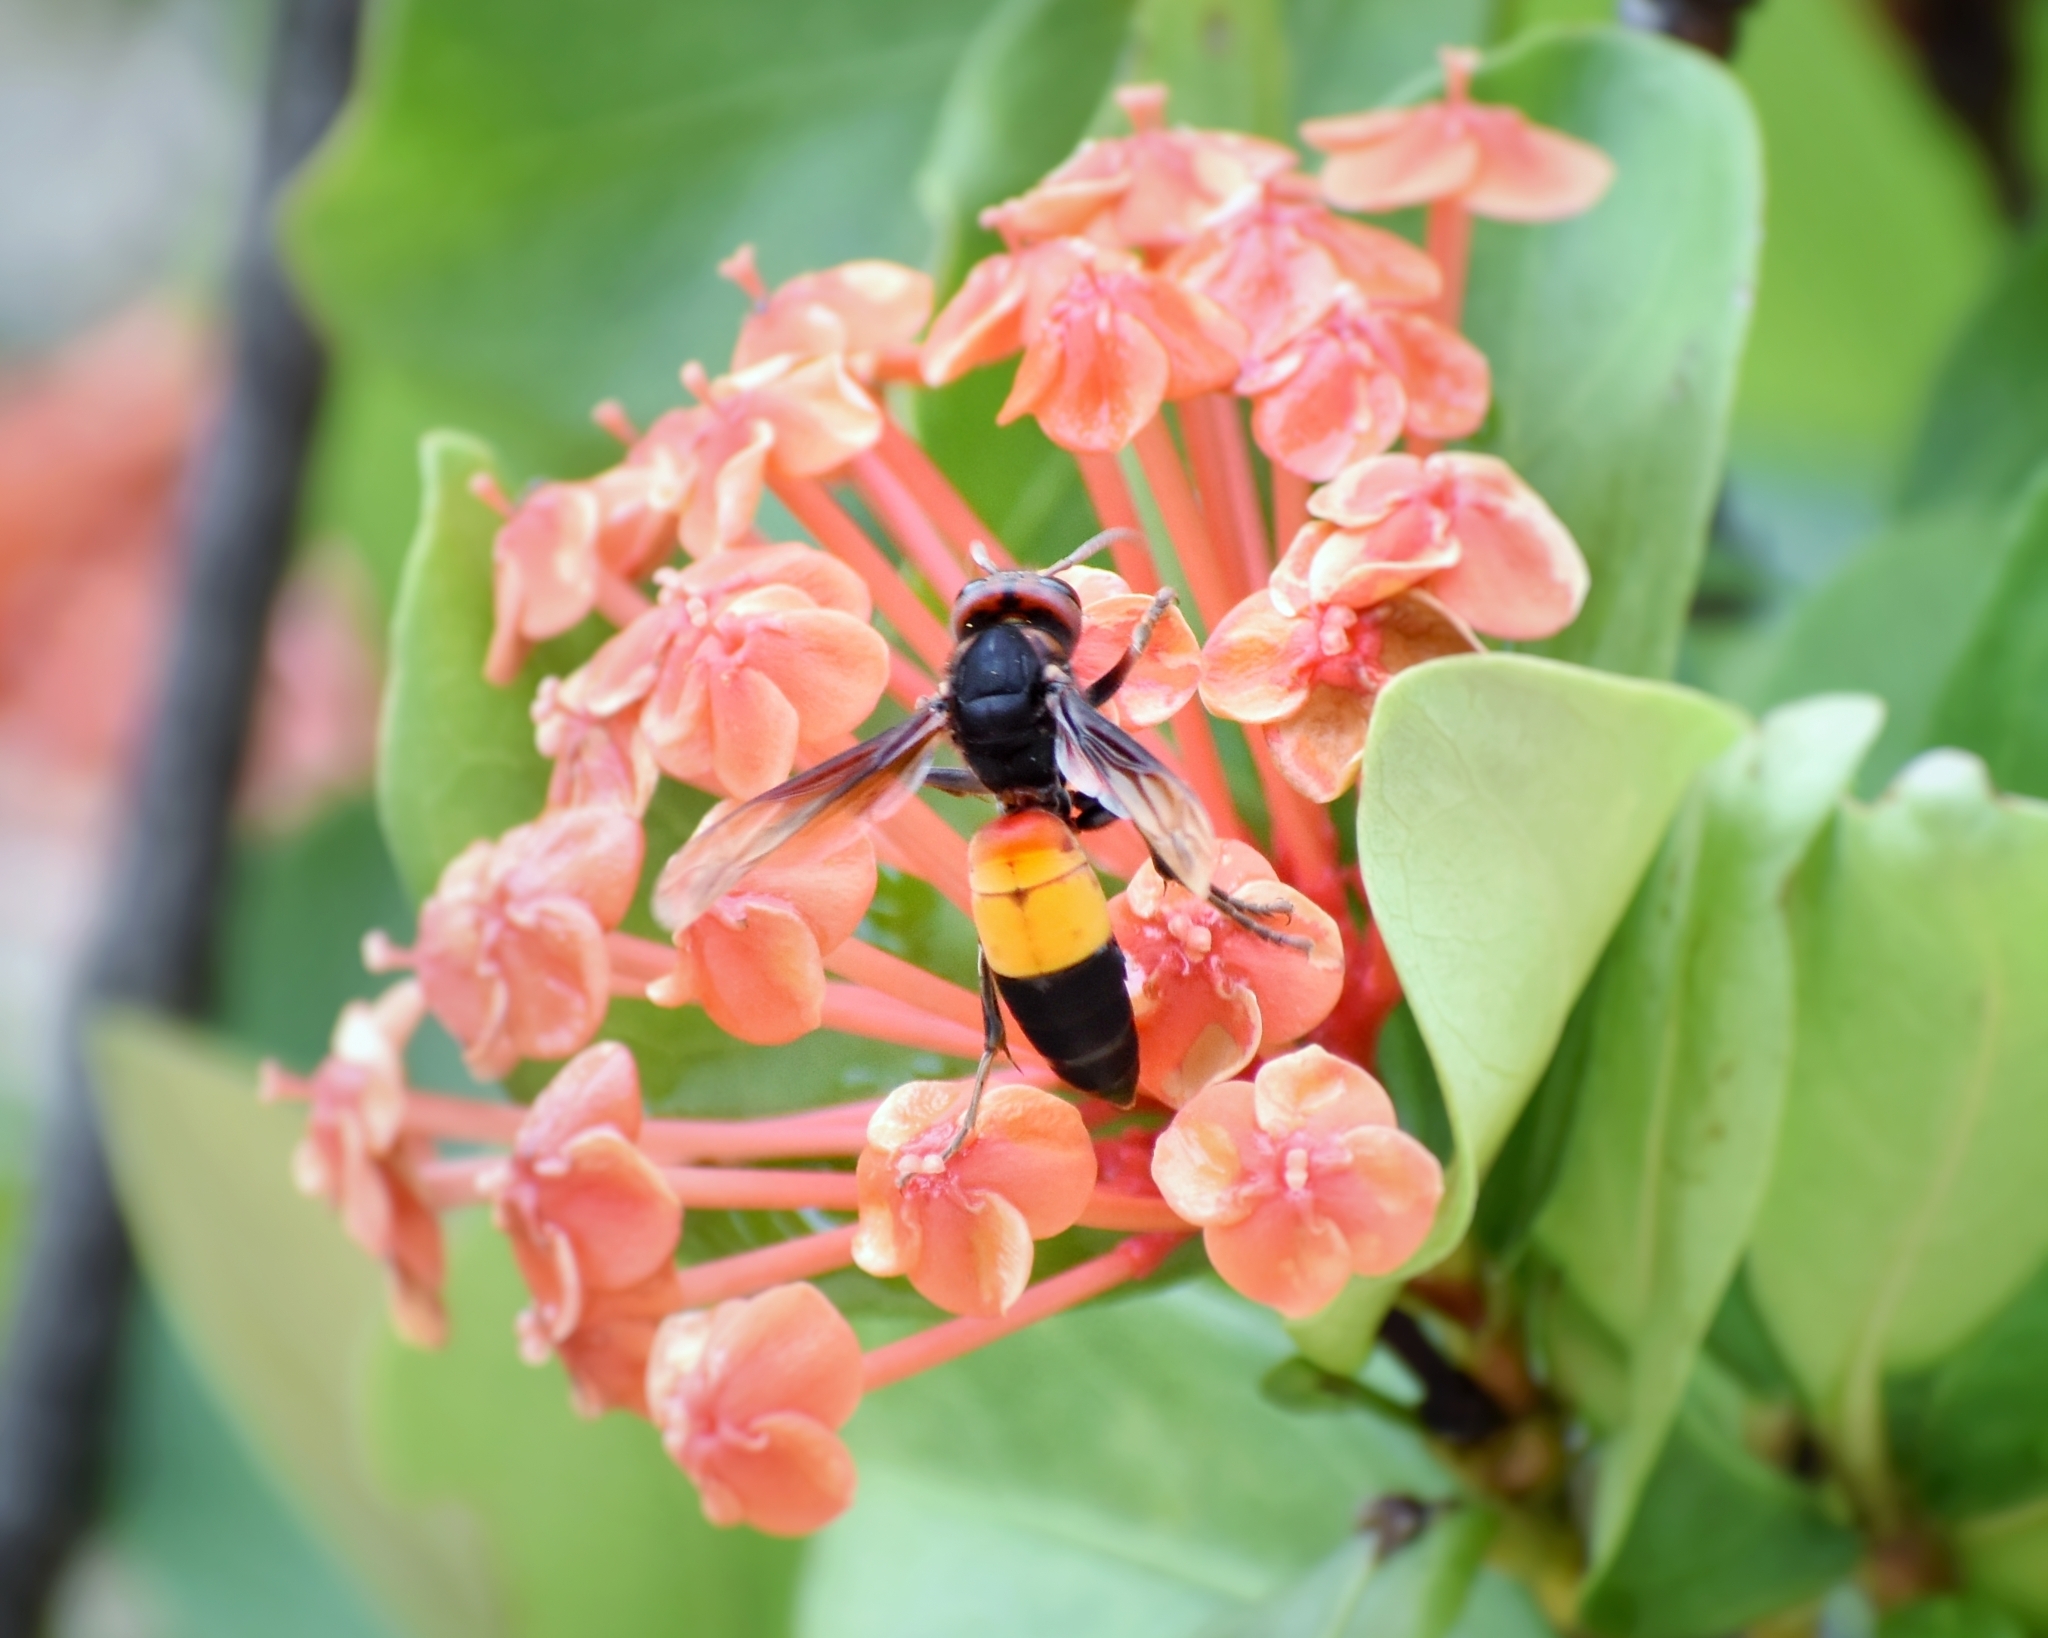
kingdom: Animalia
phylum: Arthropoda
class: Insecta
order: Hymenoptera
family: Vespidae
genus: Vespa
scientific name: Vespa affinis
